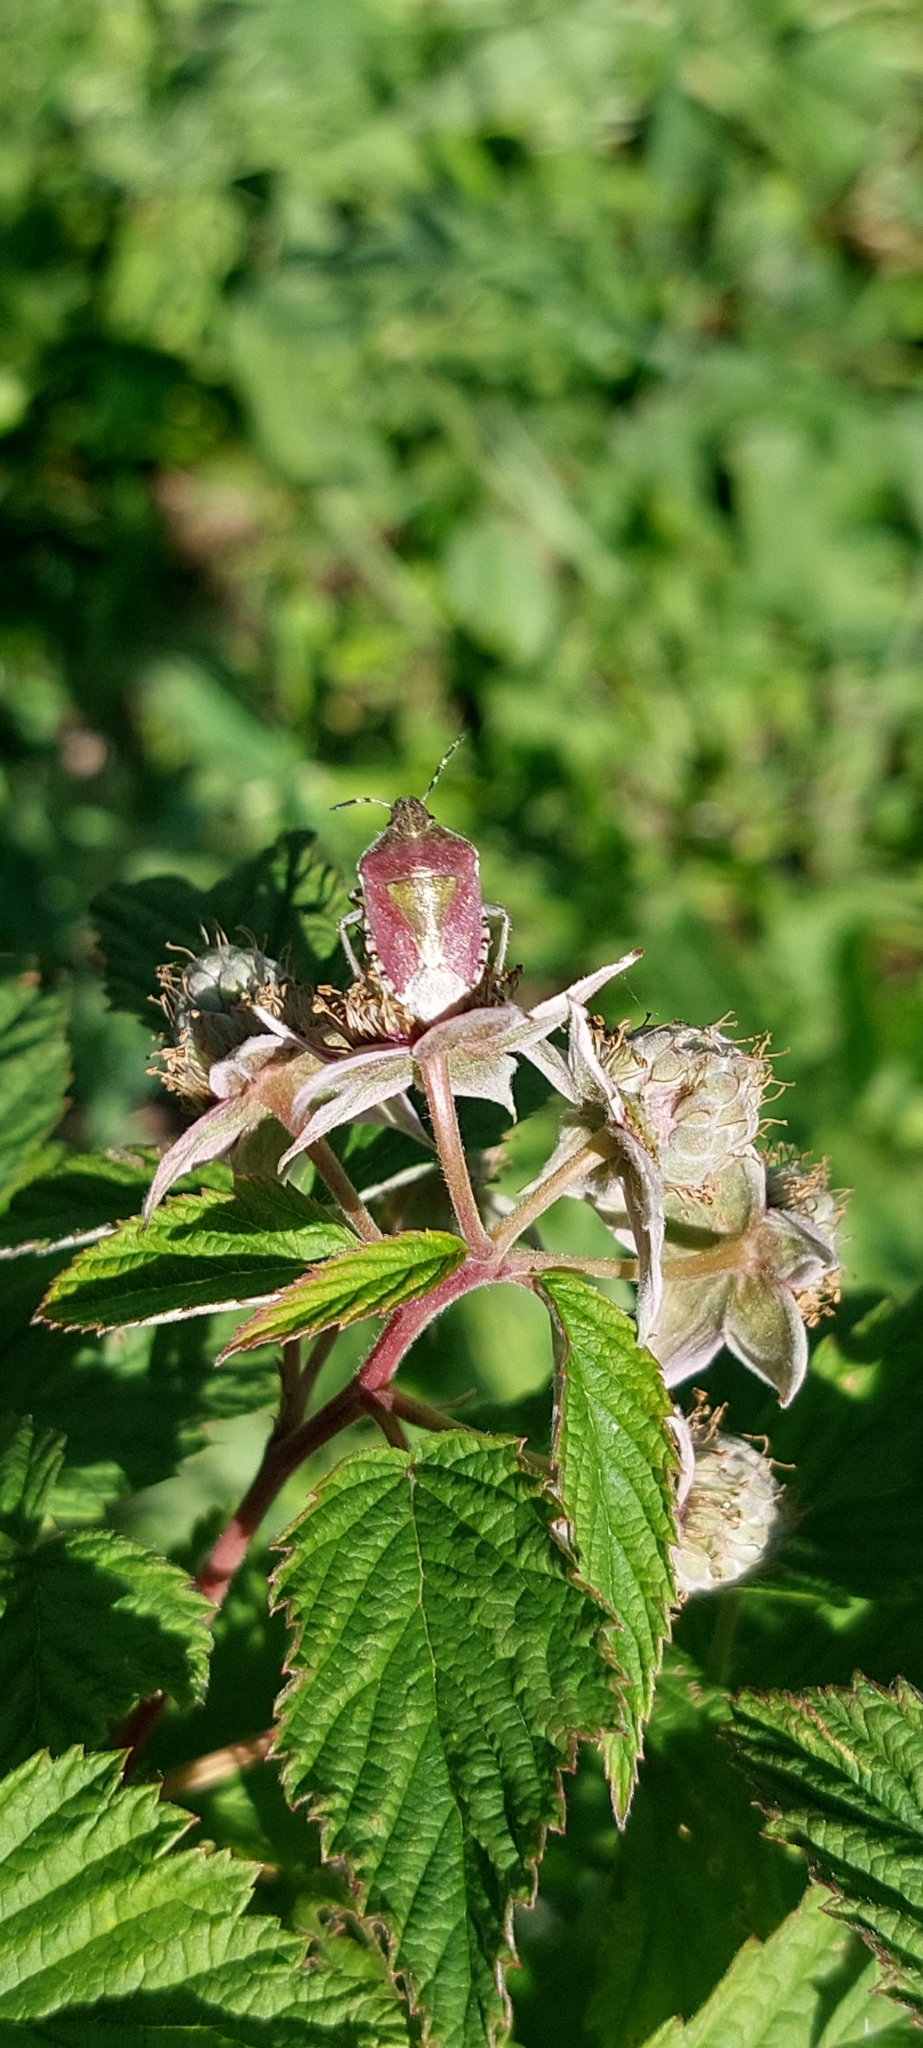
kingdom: Animalia
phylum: Arthropoda
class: Insecta
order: Hemiptera
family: Pentatomidae
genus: Dolycoris
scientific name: Dolycoris baccarum
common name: Sloe bug
